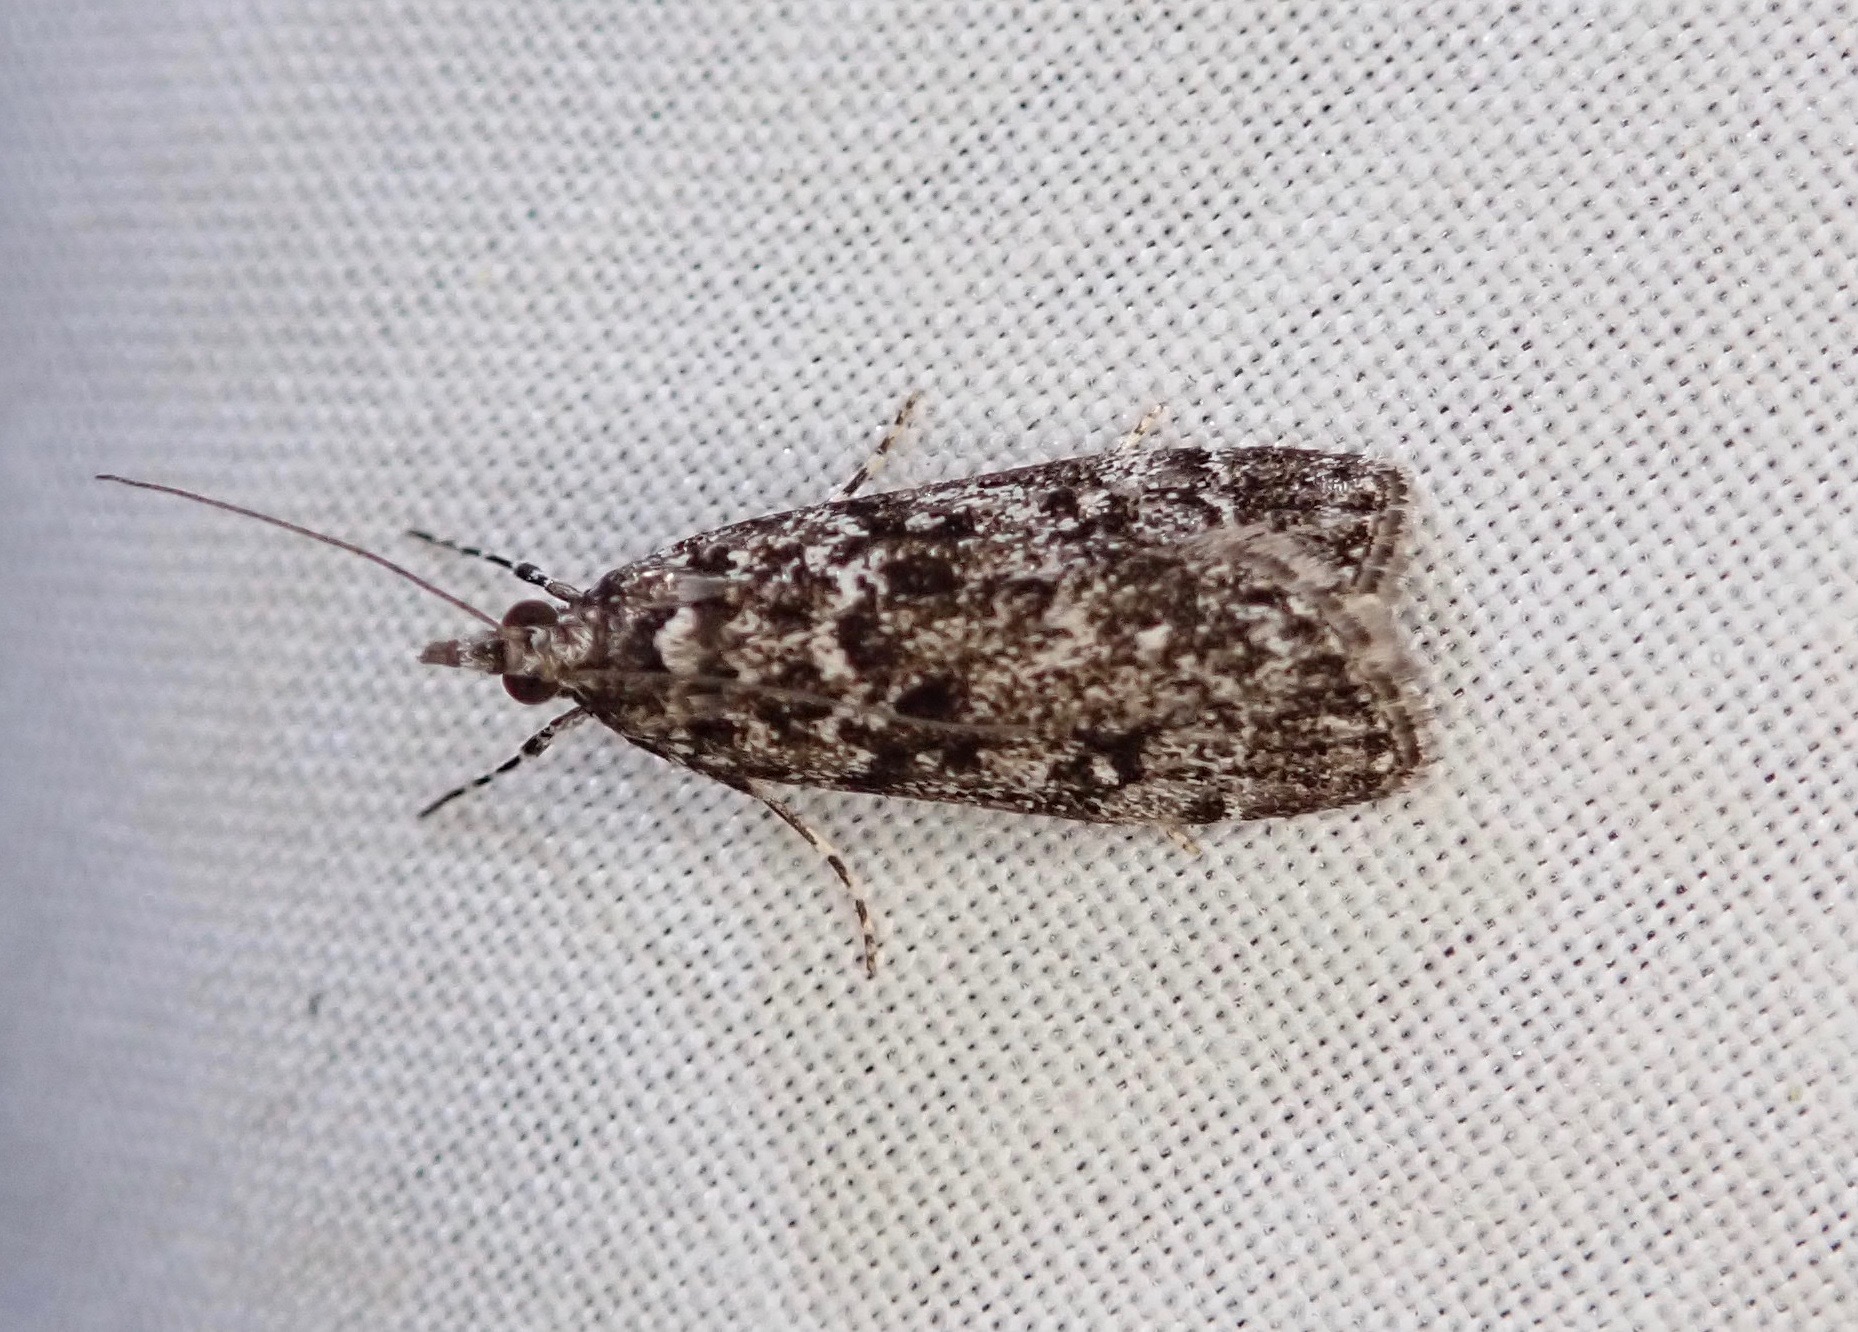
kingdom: Animalia
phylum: Arthropoda
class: Insecta
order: Lepidoptera
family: Crambidae
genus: Eudonia
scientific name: Eudonia philerga
